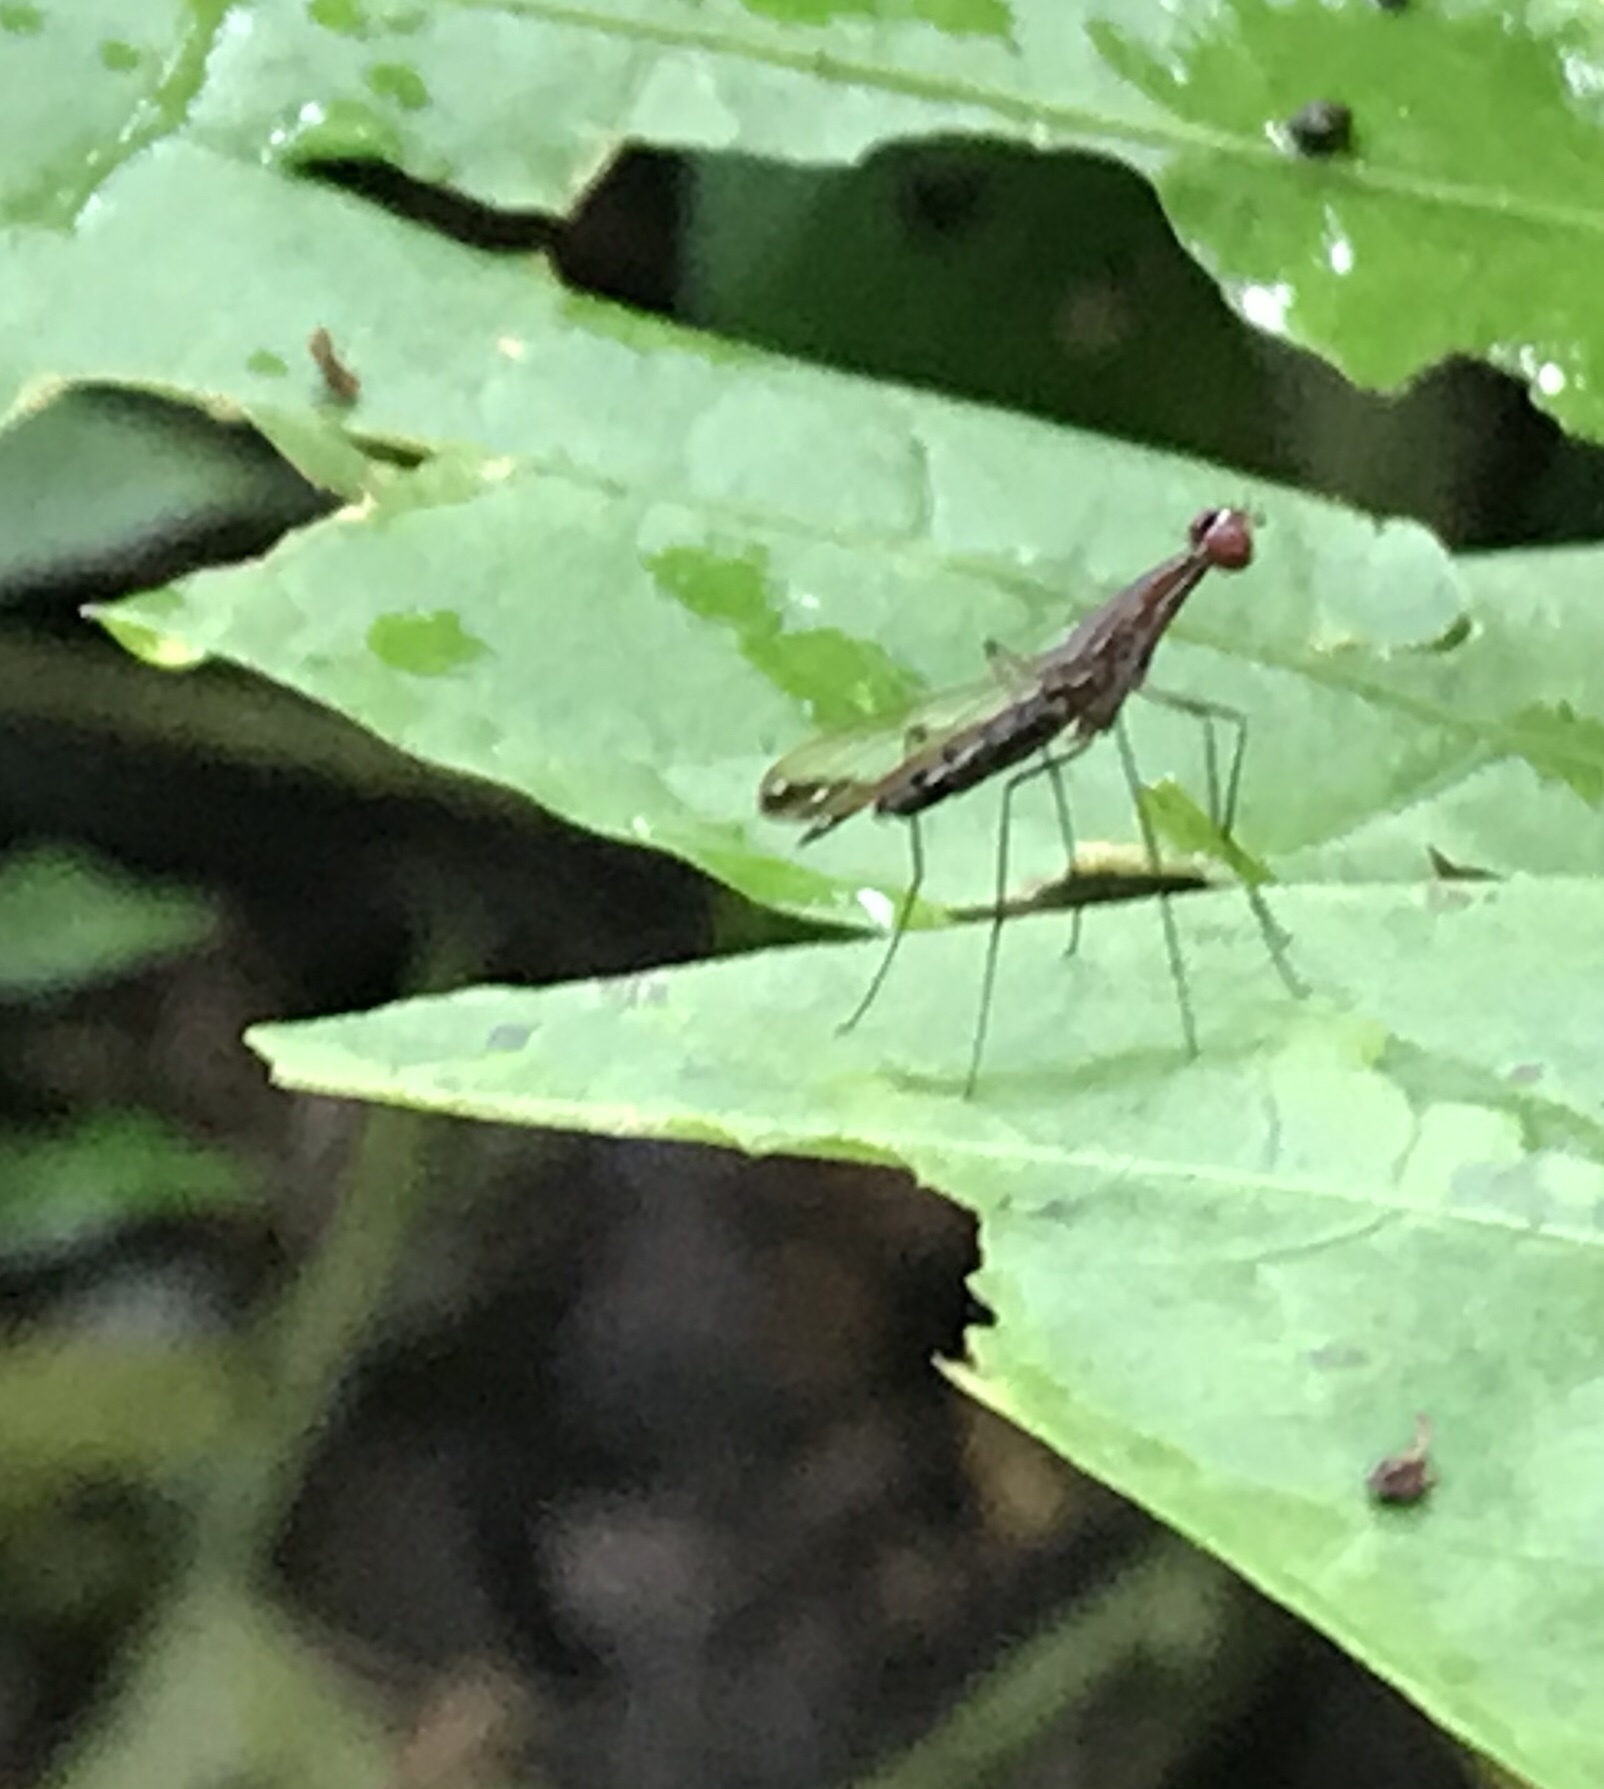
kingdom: Animalia
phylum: Arthropoda
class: Insecta
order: Diptera
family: Nothybidae
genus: Nothybus
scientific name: Nothybus biguttatus
